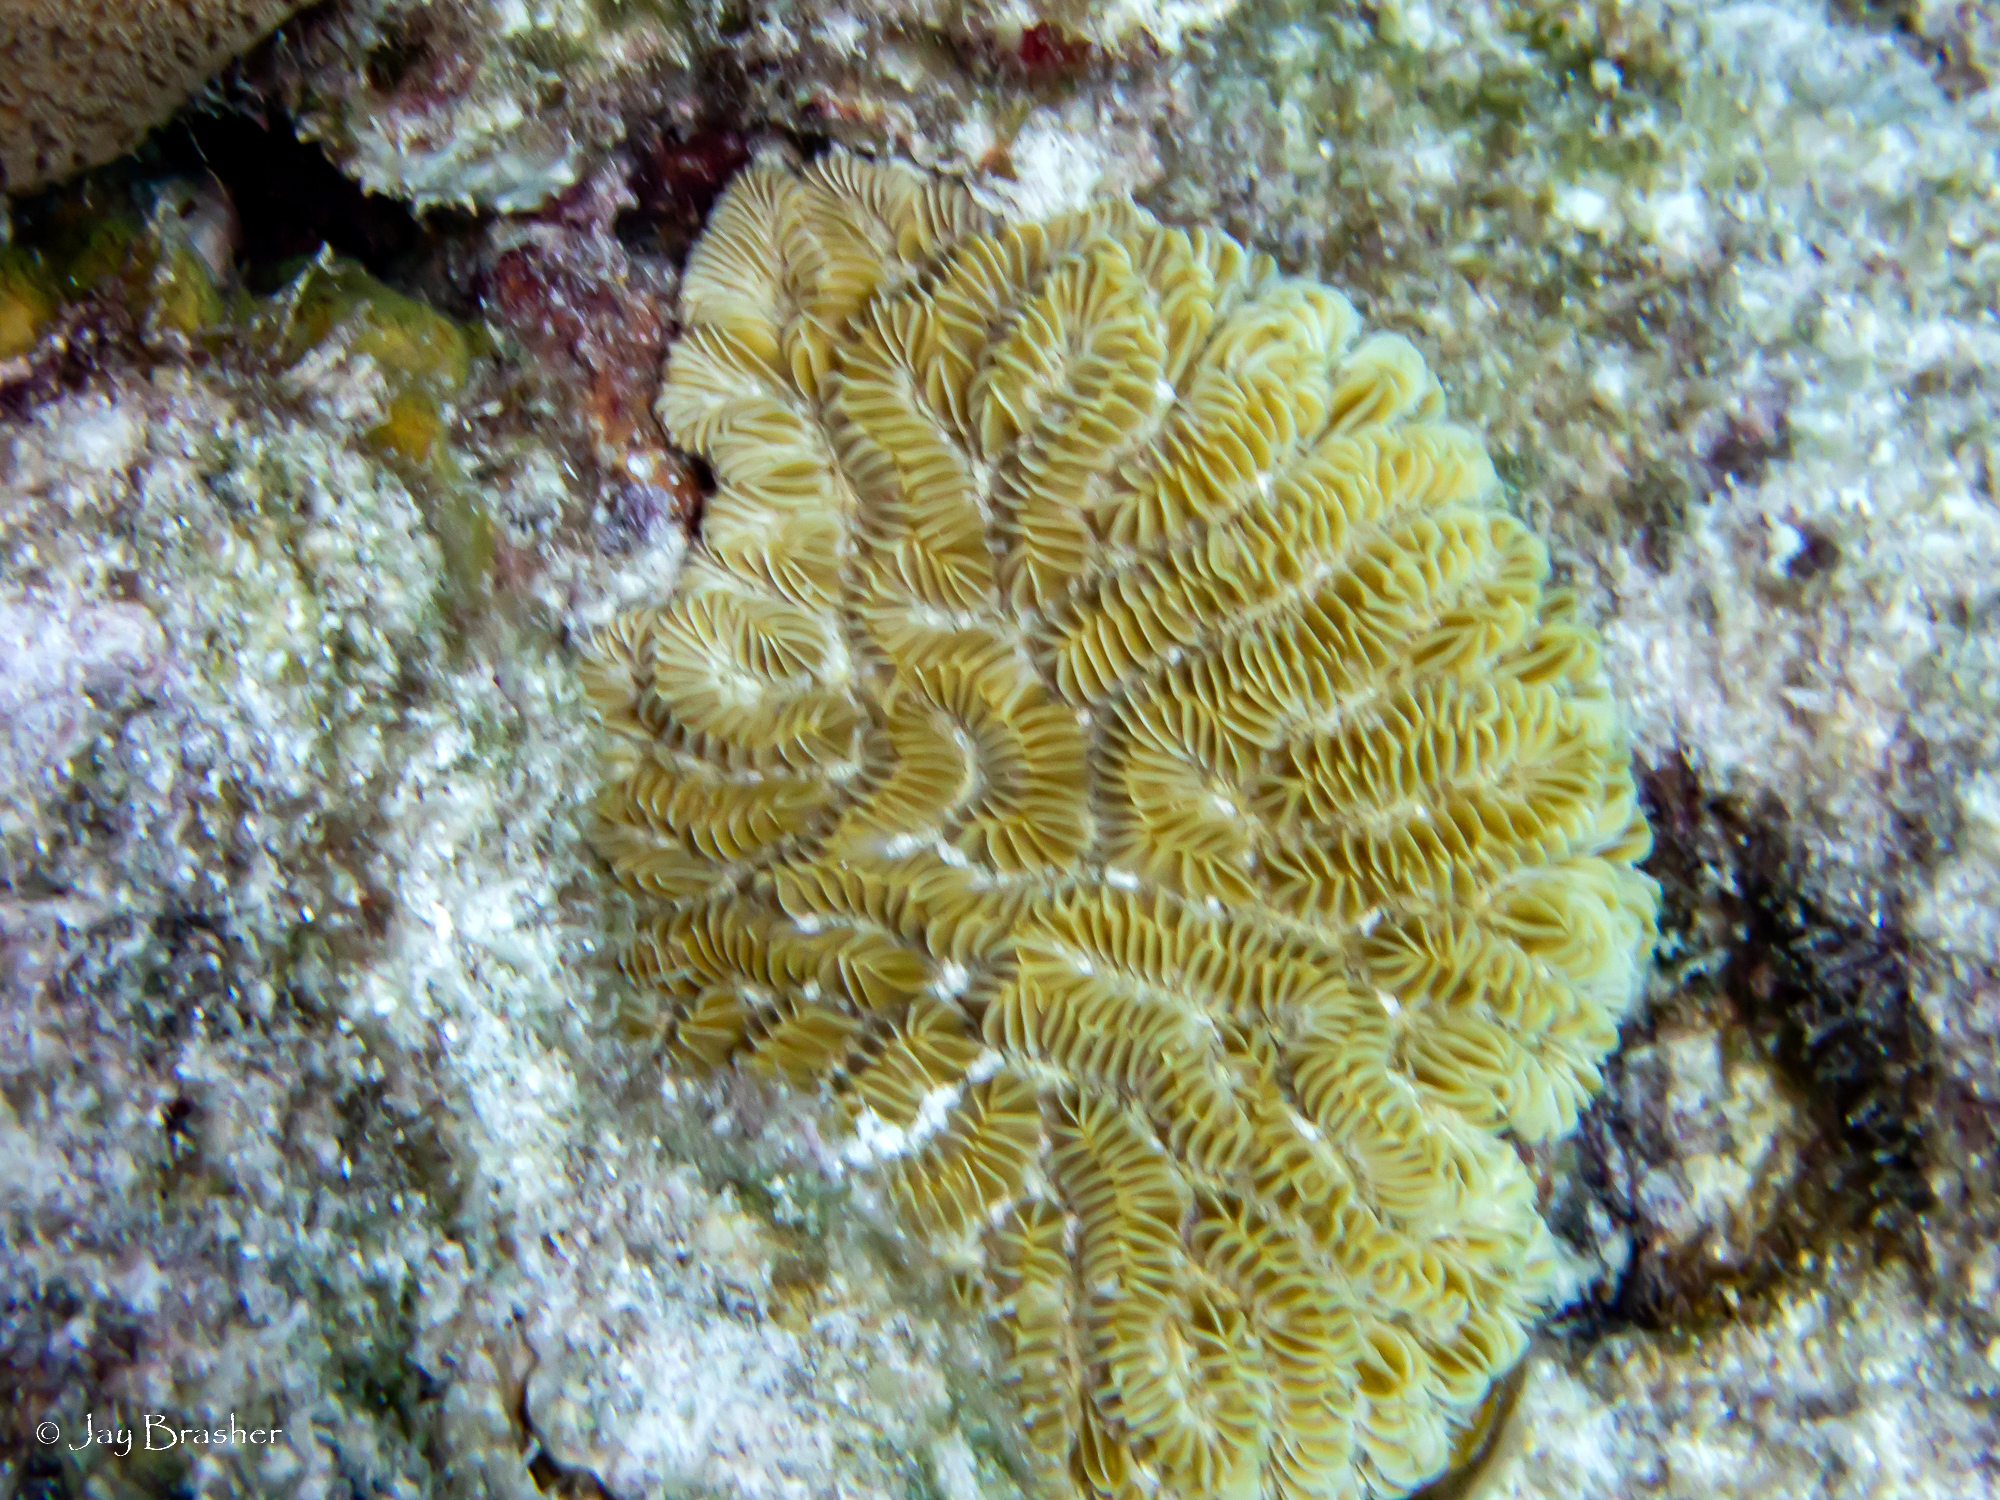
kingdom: Animalia
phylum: Cnidaria
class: Anthozoa
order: Scleractinia
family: Meandrinidae
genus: Meandrina
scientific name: Meandrina meandrites
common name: Maze coral
